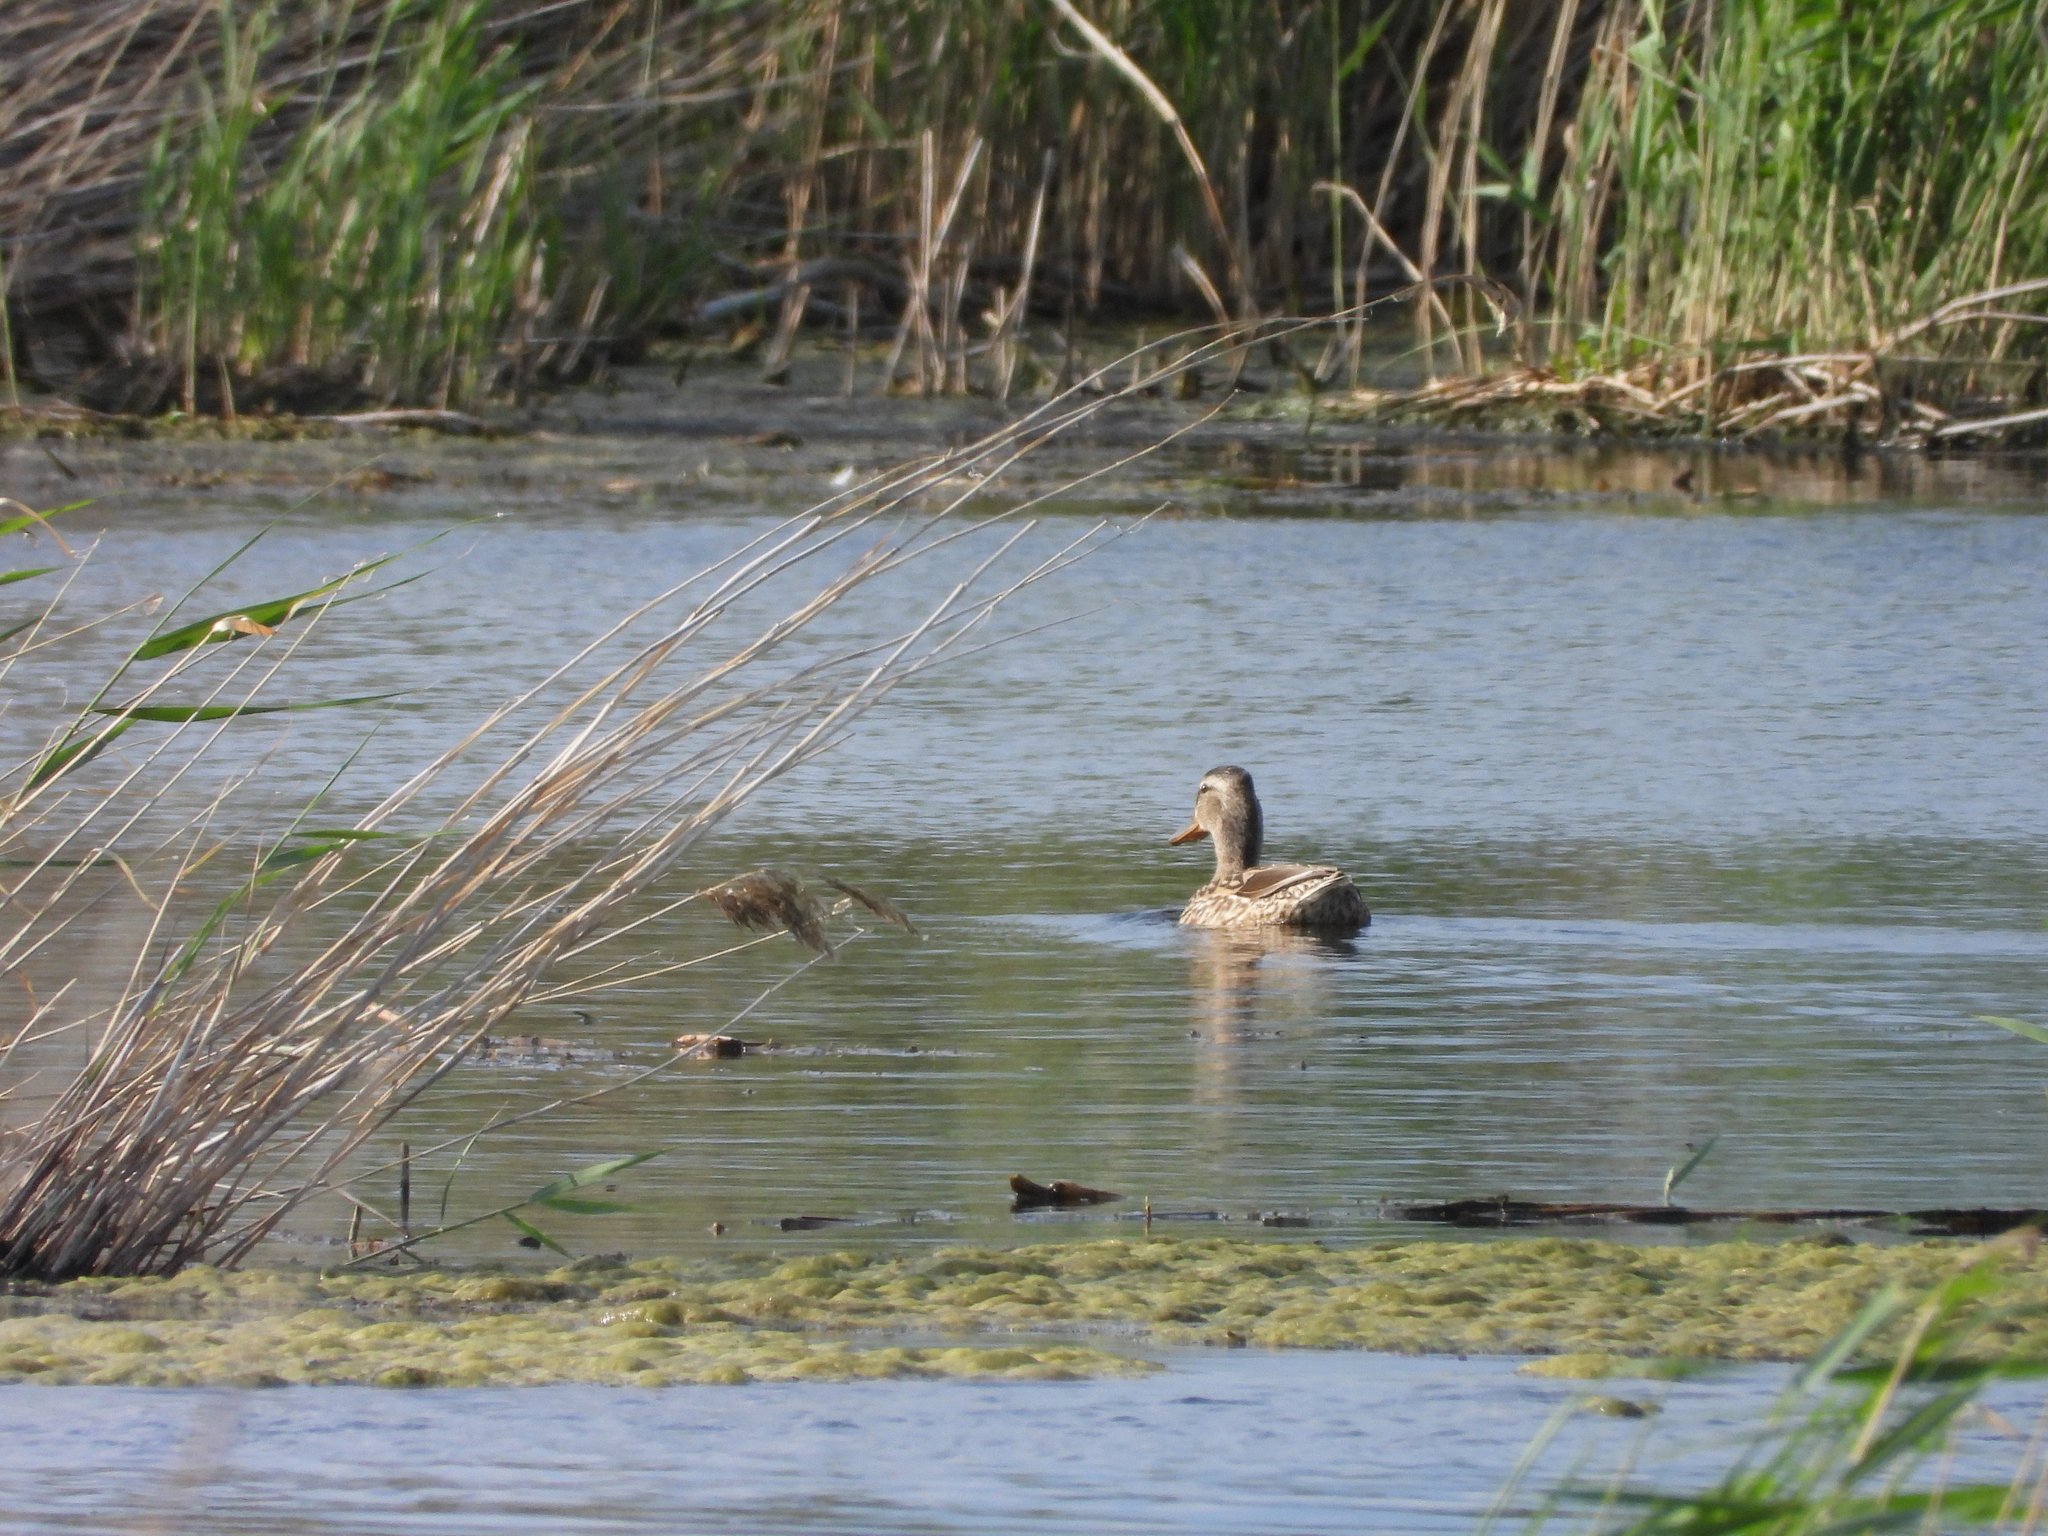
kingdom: Animalia
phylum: Chordata
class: Aves
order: Anseriformes
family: Anatidae
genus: Mareca
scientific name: Mareca strepera
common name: Gadwall
